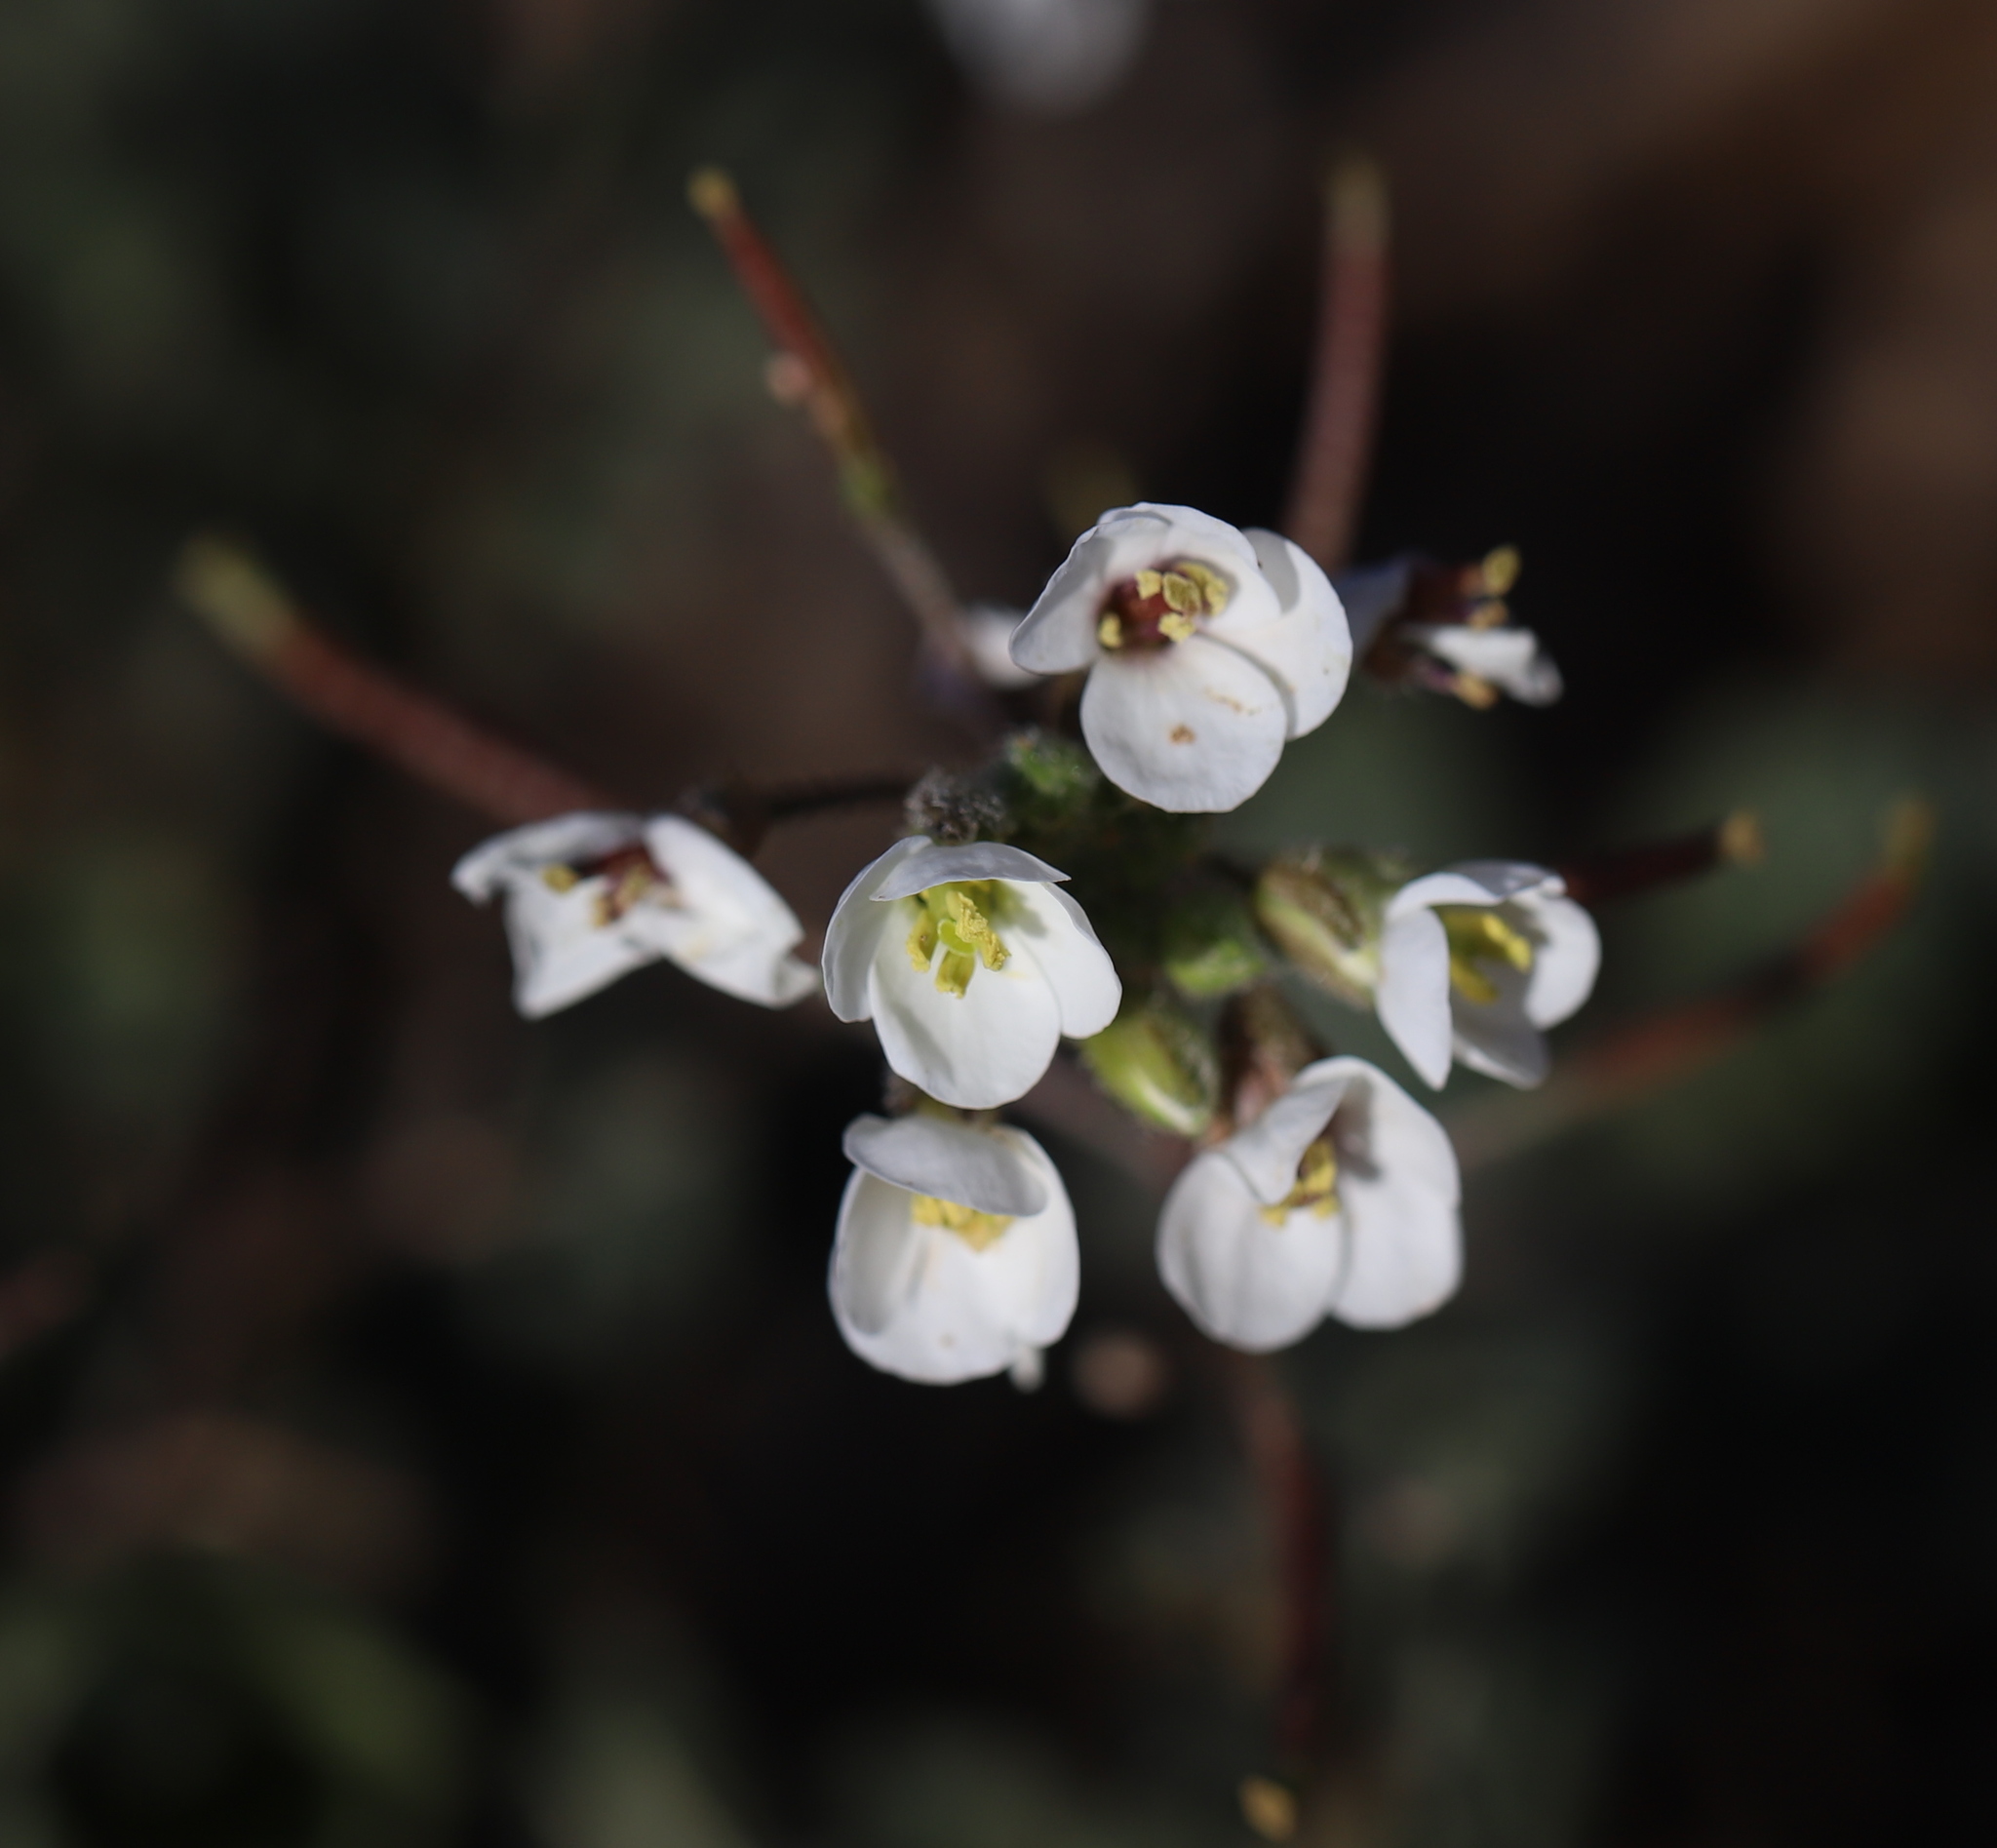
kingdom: Plantae
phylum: Tracheophyta
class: Magnoliopsida
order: Brassicales
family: Brassicaceae
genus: Diplotaxis
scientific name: Diplotaxis erucoides
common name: White rocket
